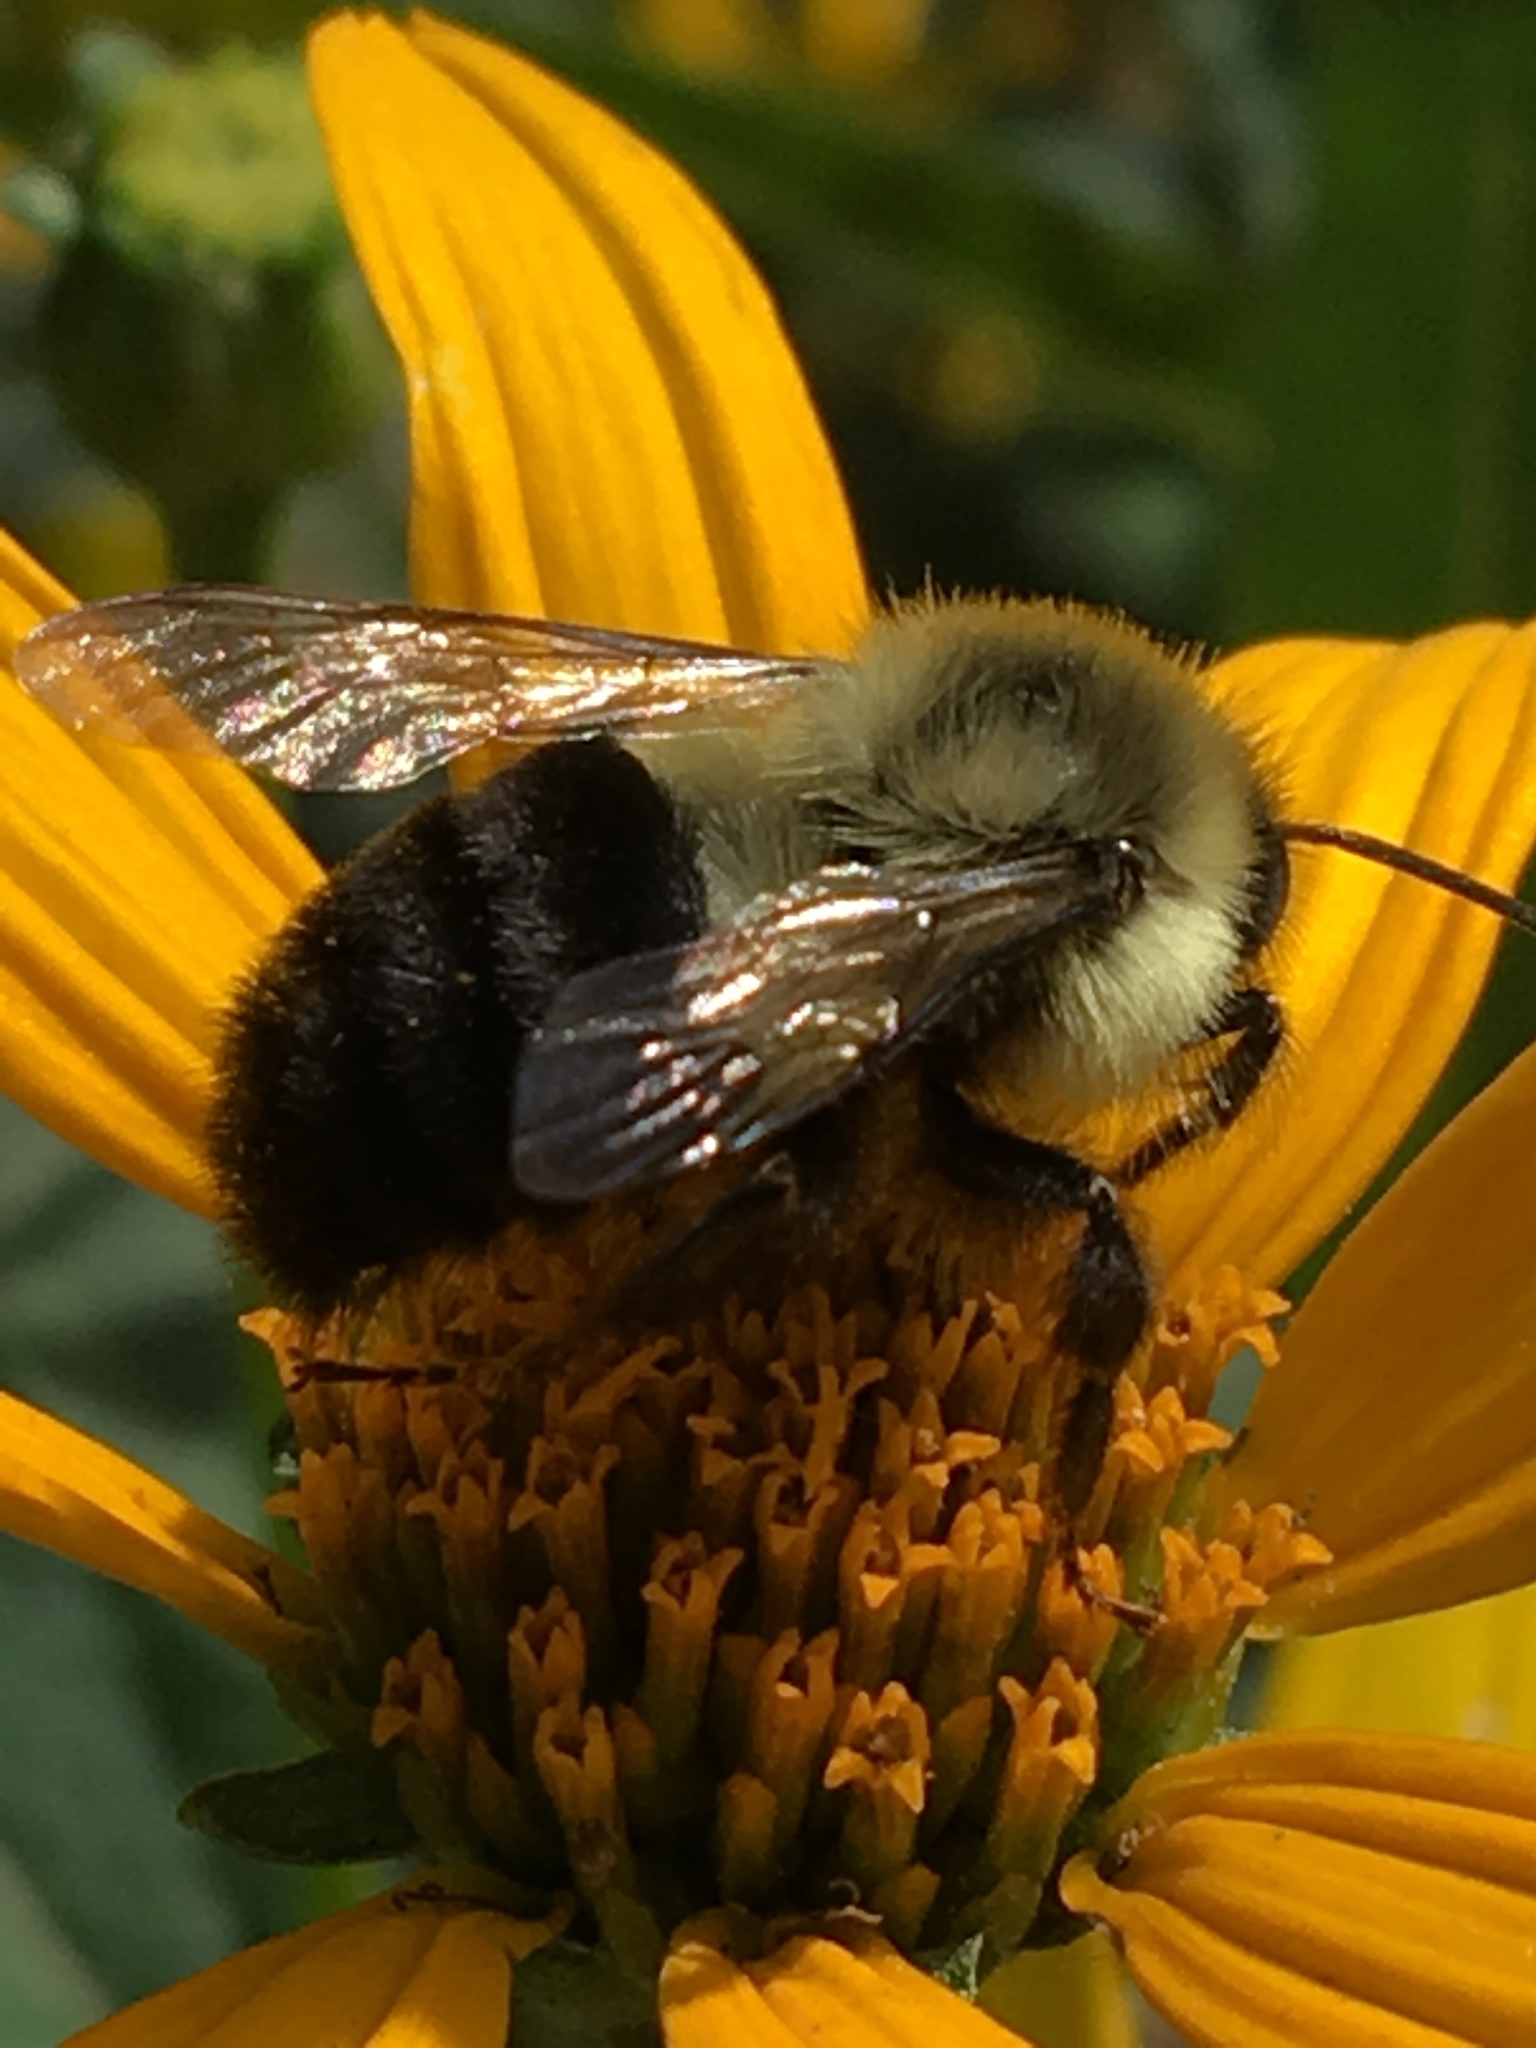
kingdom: Animalia
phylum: Arthropoda
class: Insecta
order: Hymenoptera
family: Apidae
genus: Bombus
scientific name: Bombus impatiens
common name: Common eastern bumble bee
